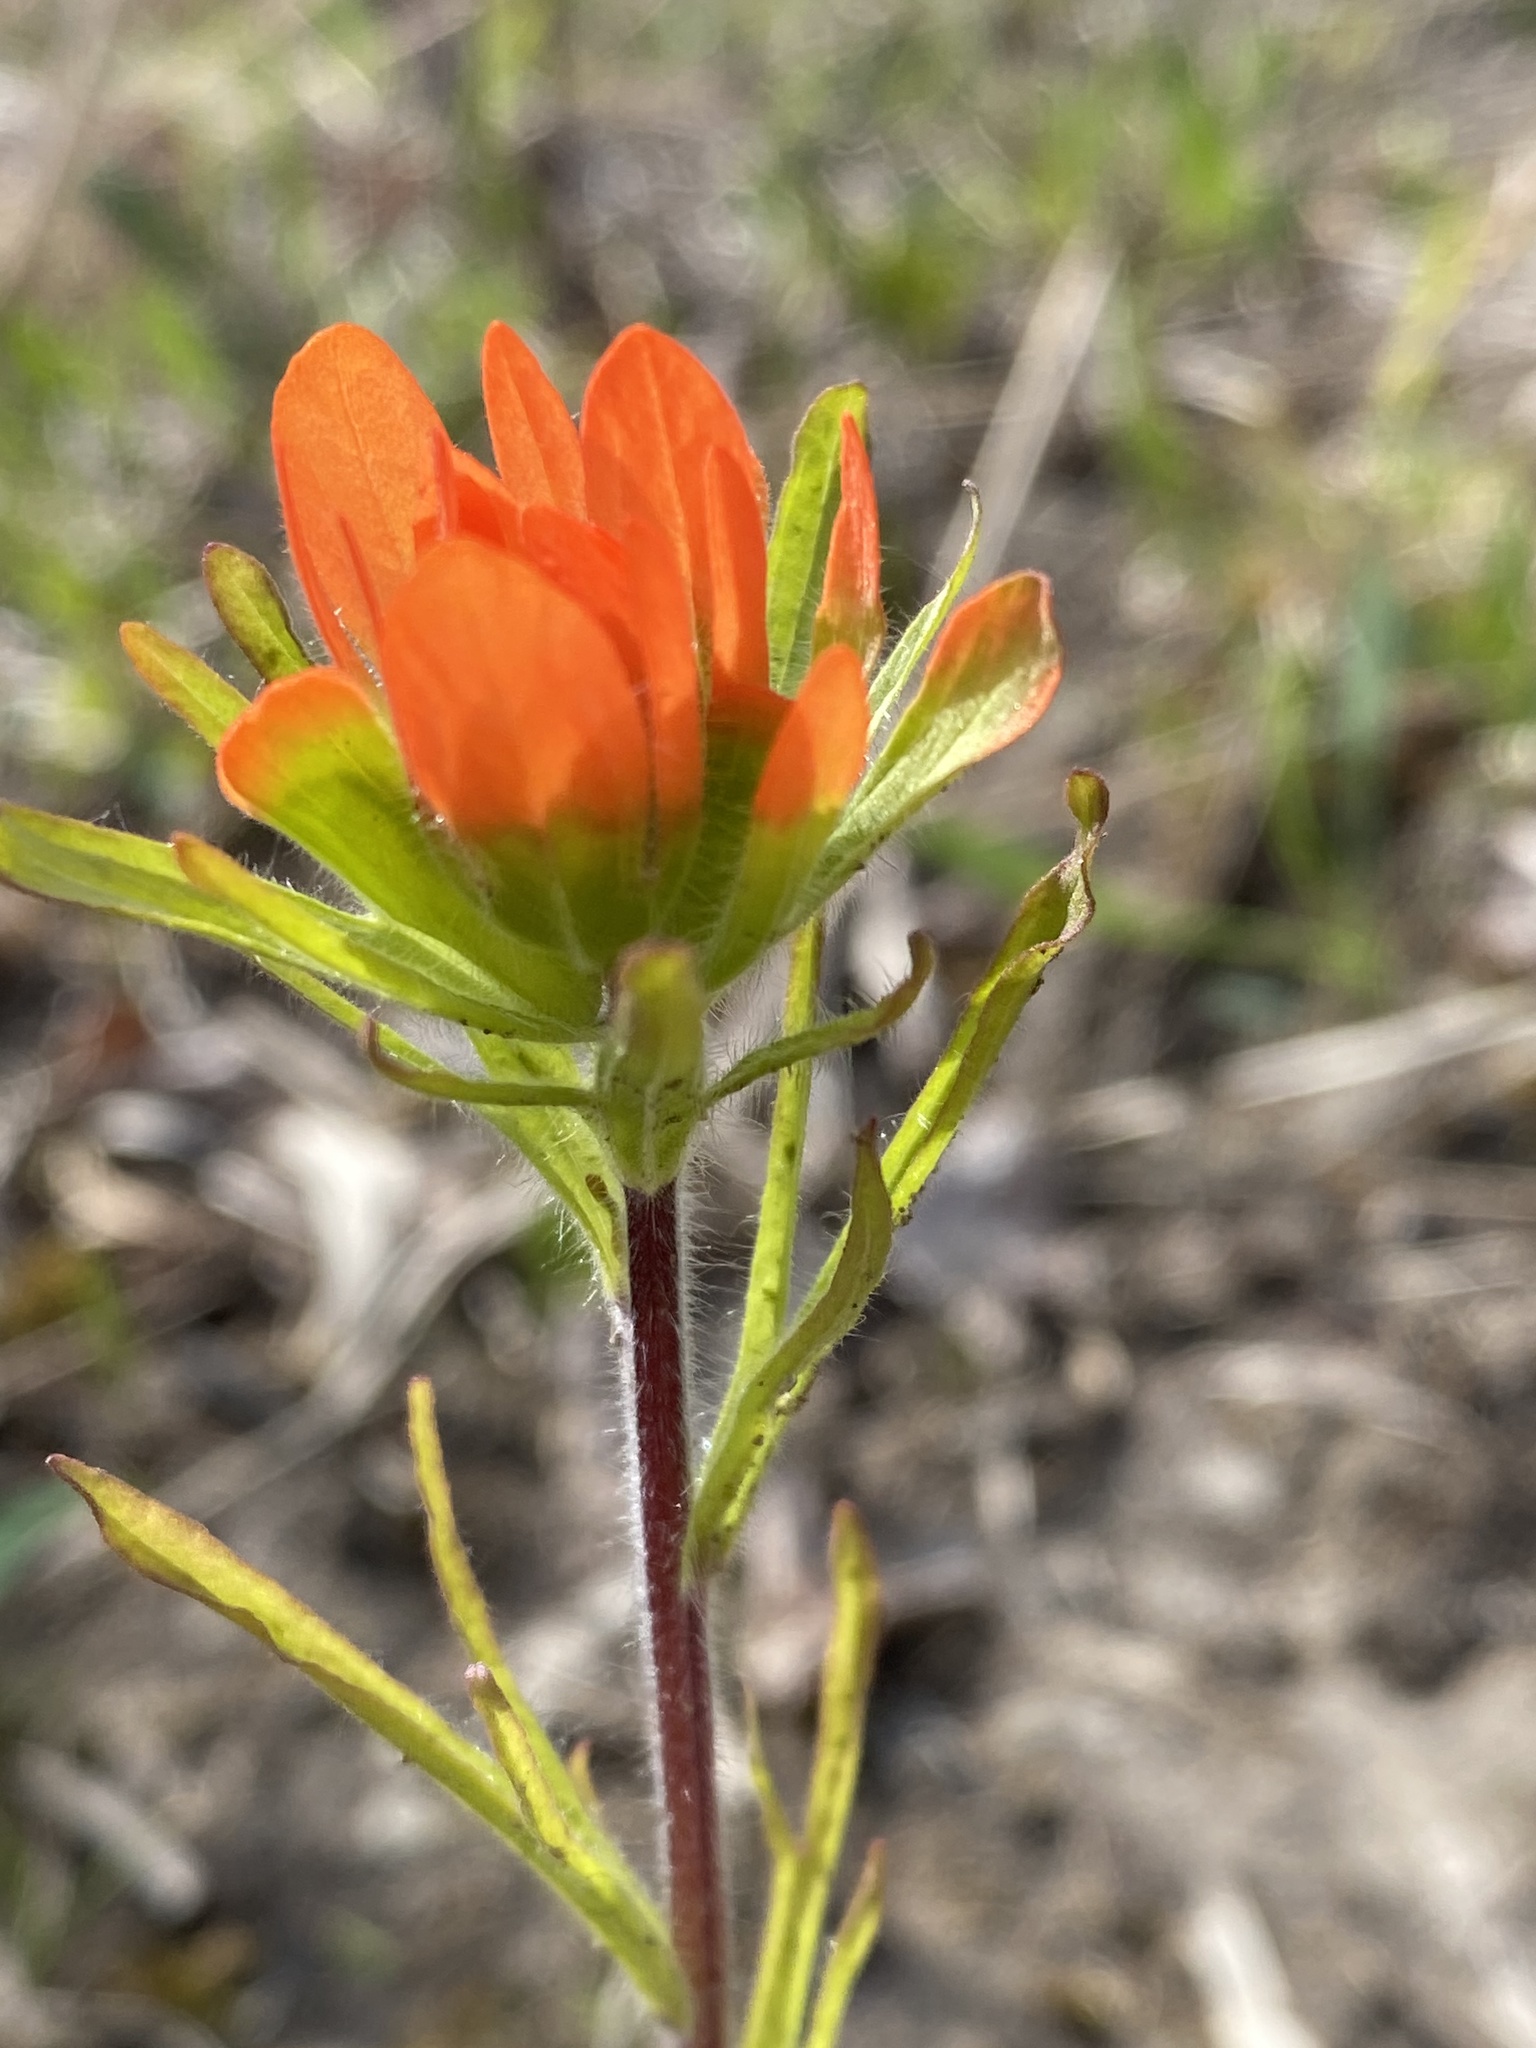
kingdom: Plantae
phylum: Tracheophyta
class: Magnoliopsida
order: Lamiales
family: Orobanchaceae
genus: Castilleja
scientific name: Castilleja coccinea
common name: Scarlet paintbrush
